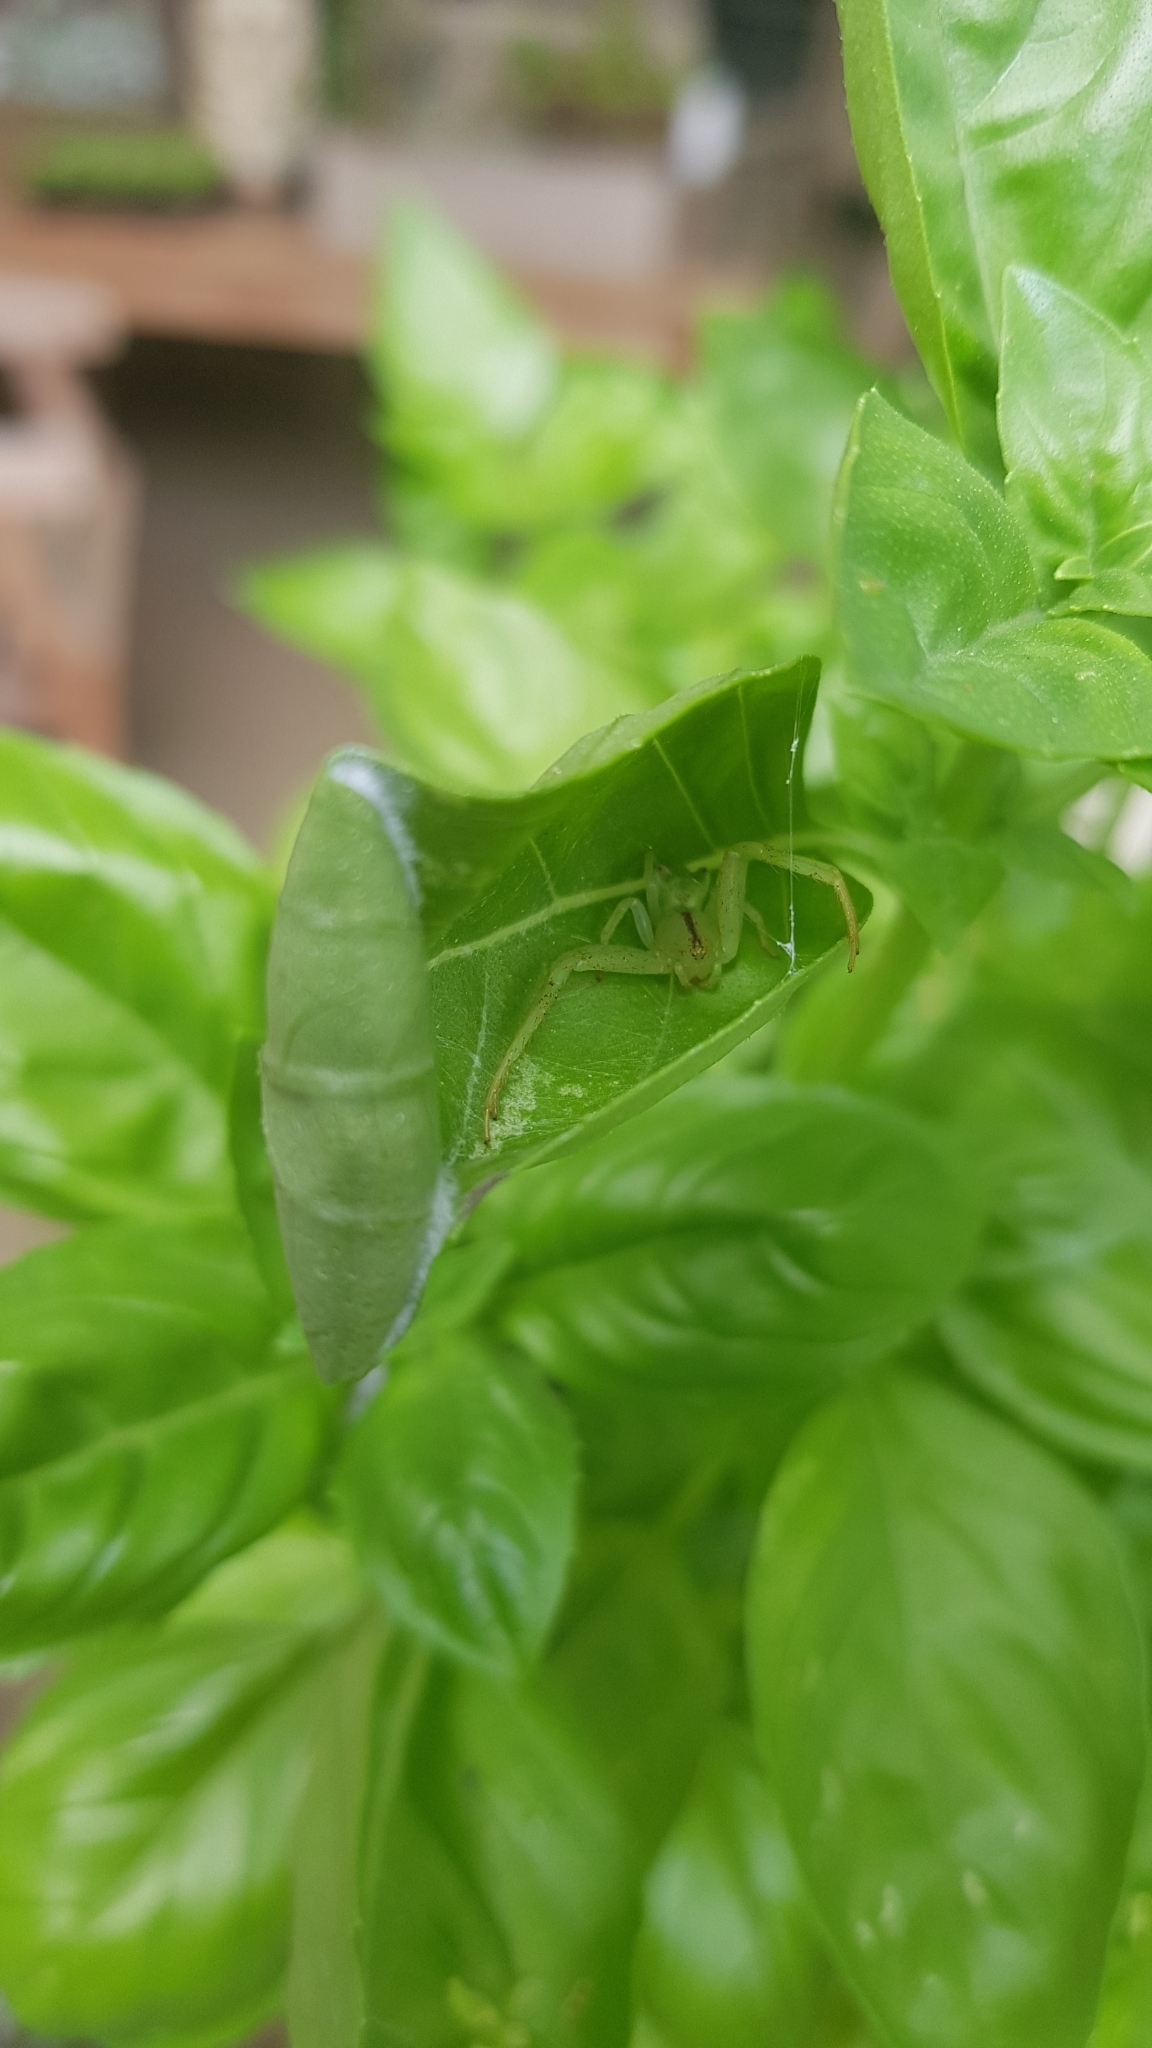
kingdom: Animalia
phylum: Arthropoda
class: Arachnida
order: Araneae
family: Thomisidae
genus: Sidymella
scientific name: Sidymella rubrosignata
